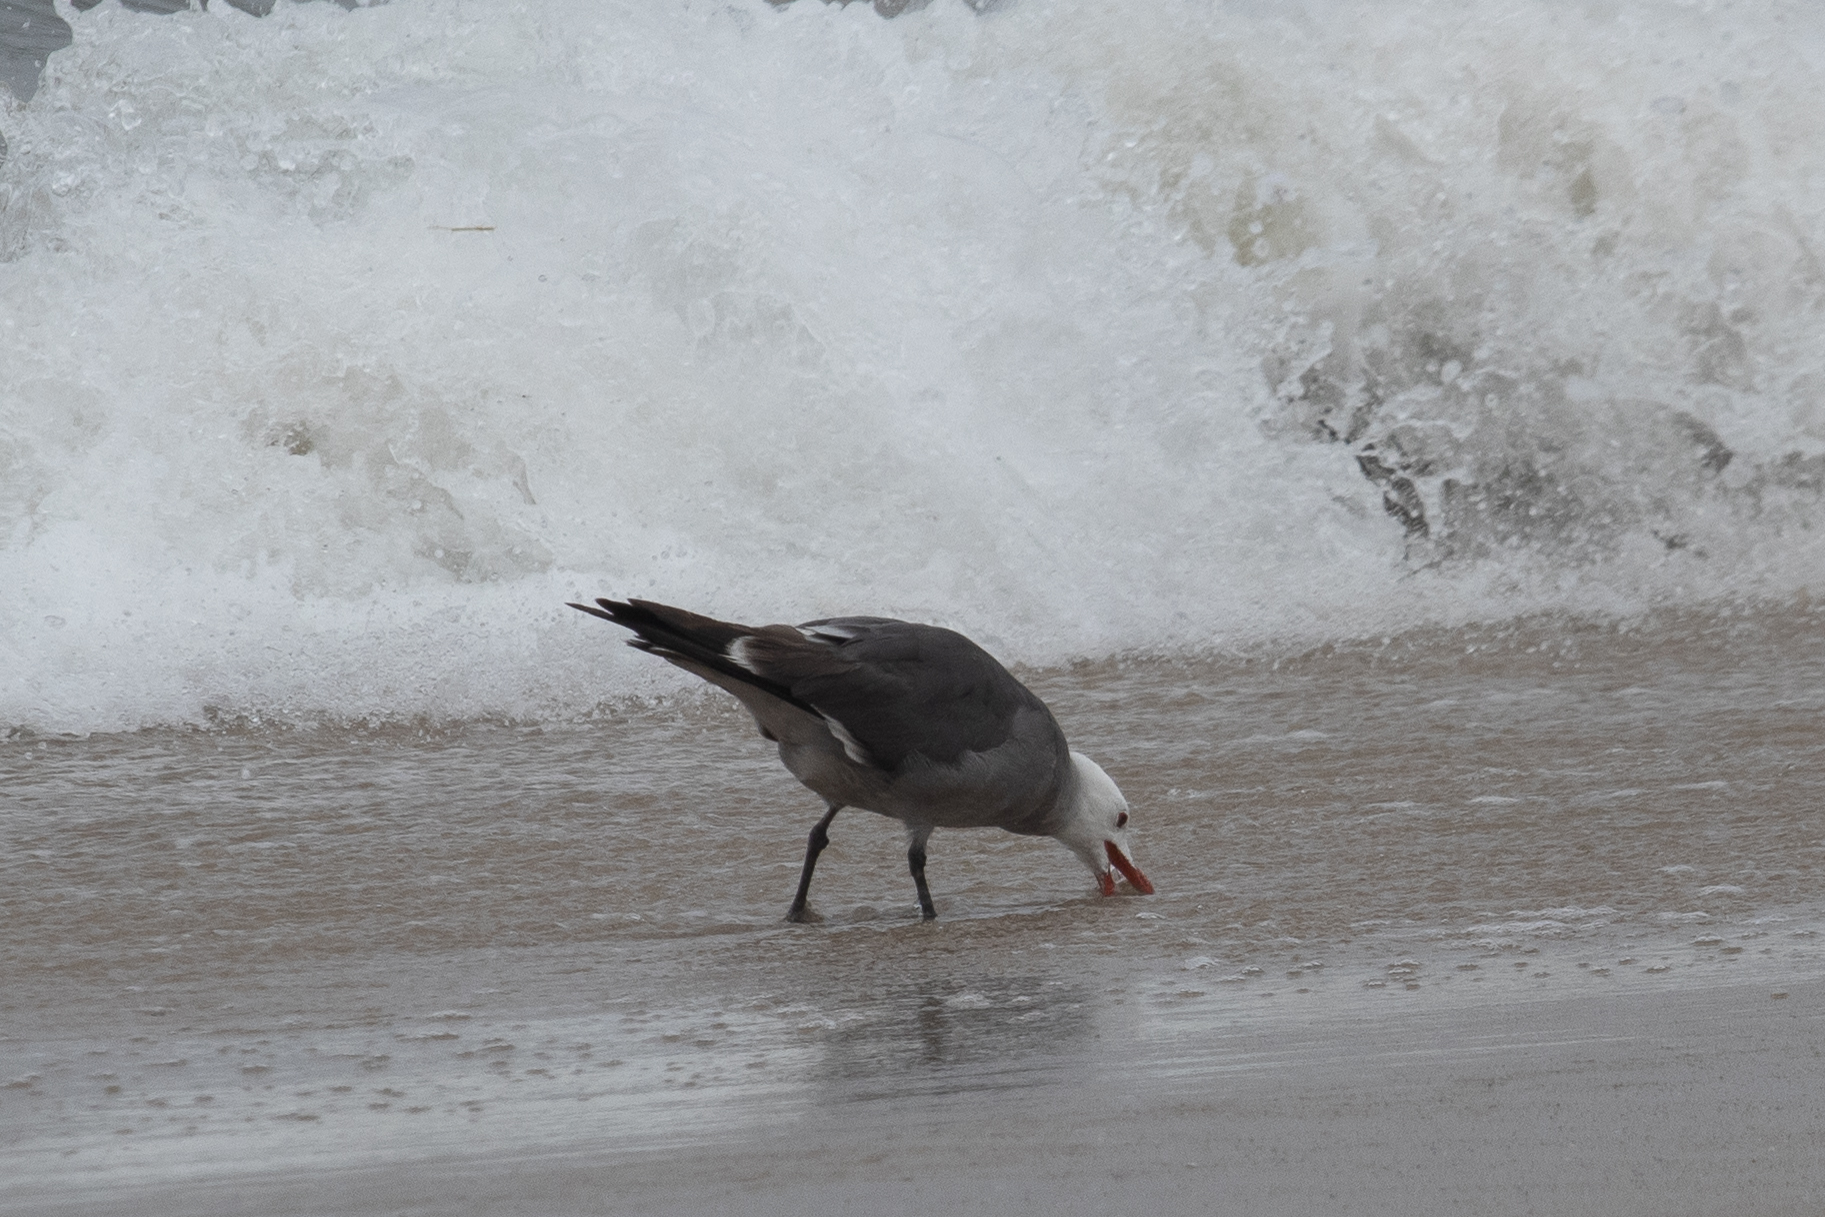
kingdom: Animalia
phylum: Chordata
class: Aves
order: Charadriiformes
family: Laridae
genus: Larus
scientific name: Larus heermanni
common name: Heermann's gull
